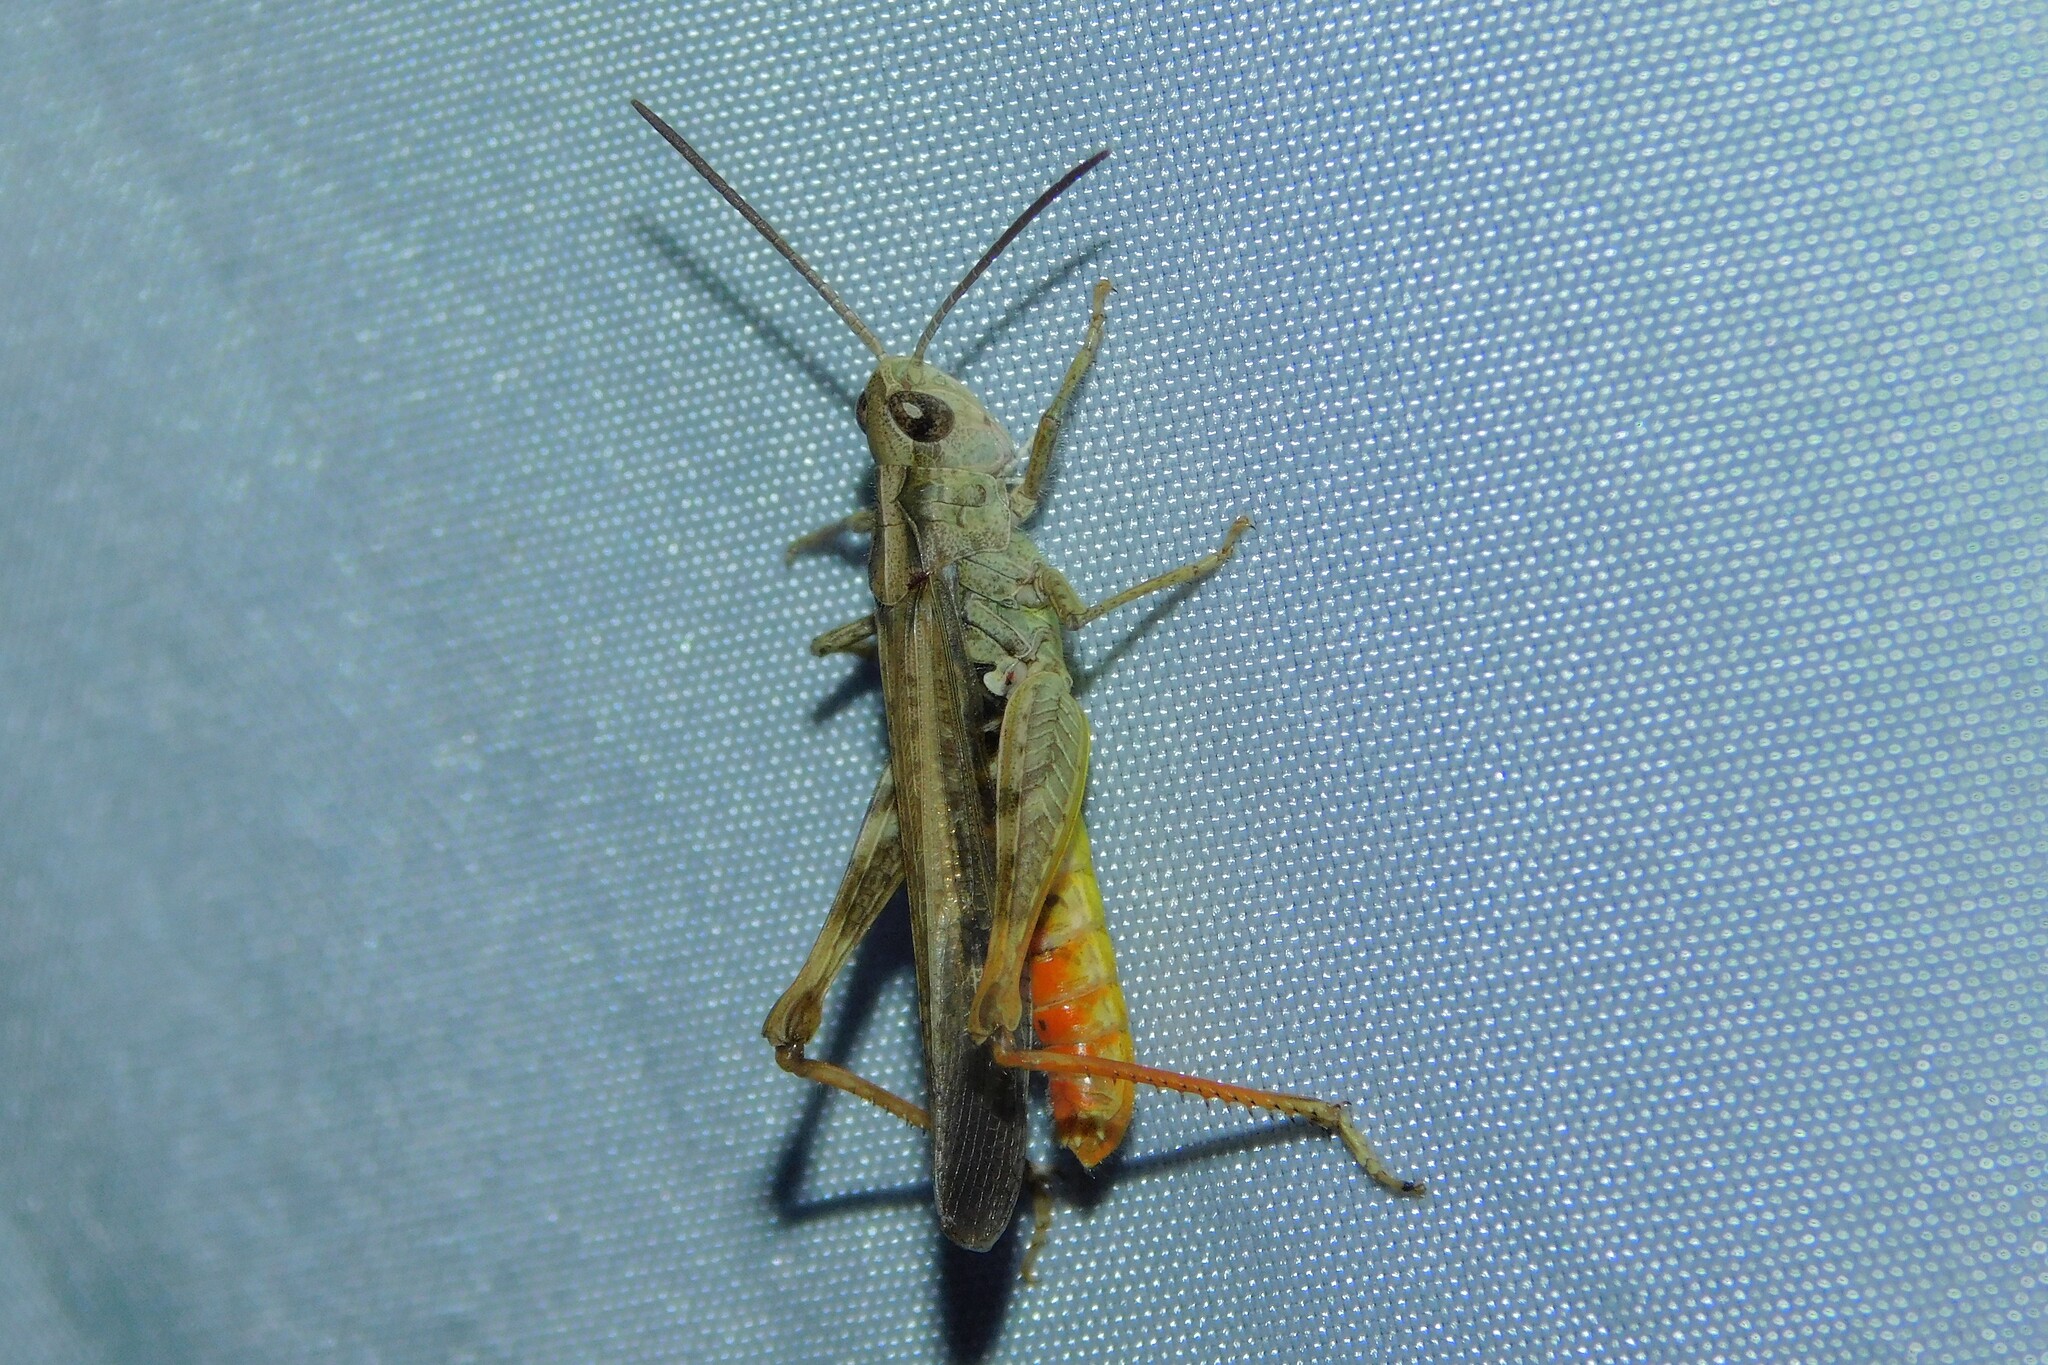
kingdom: Animalia
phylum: Arthropoda
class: Insecta
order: Orthoptera
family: Acrididae
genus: Chorthippus
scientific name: Chorthippus brunneus
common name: Field grasshopper
